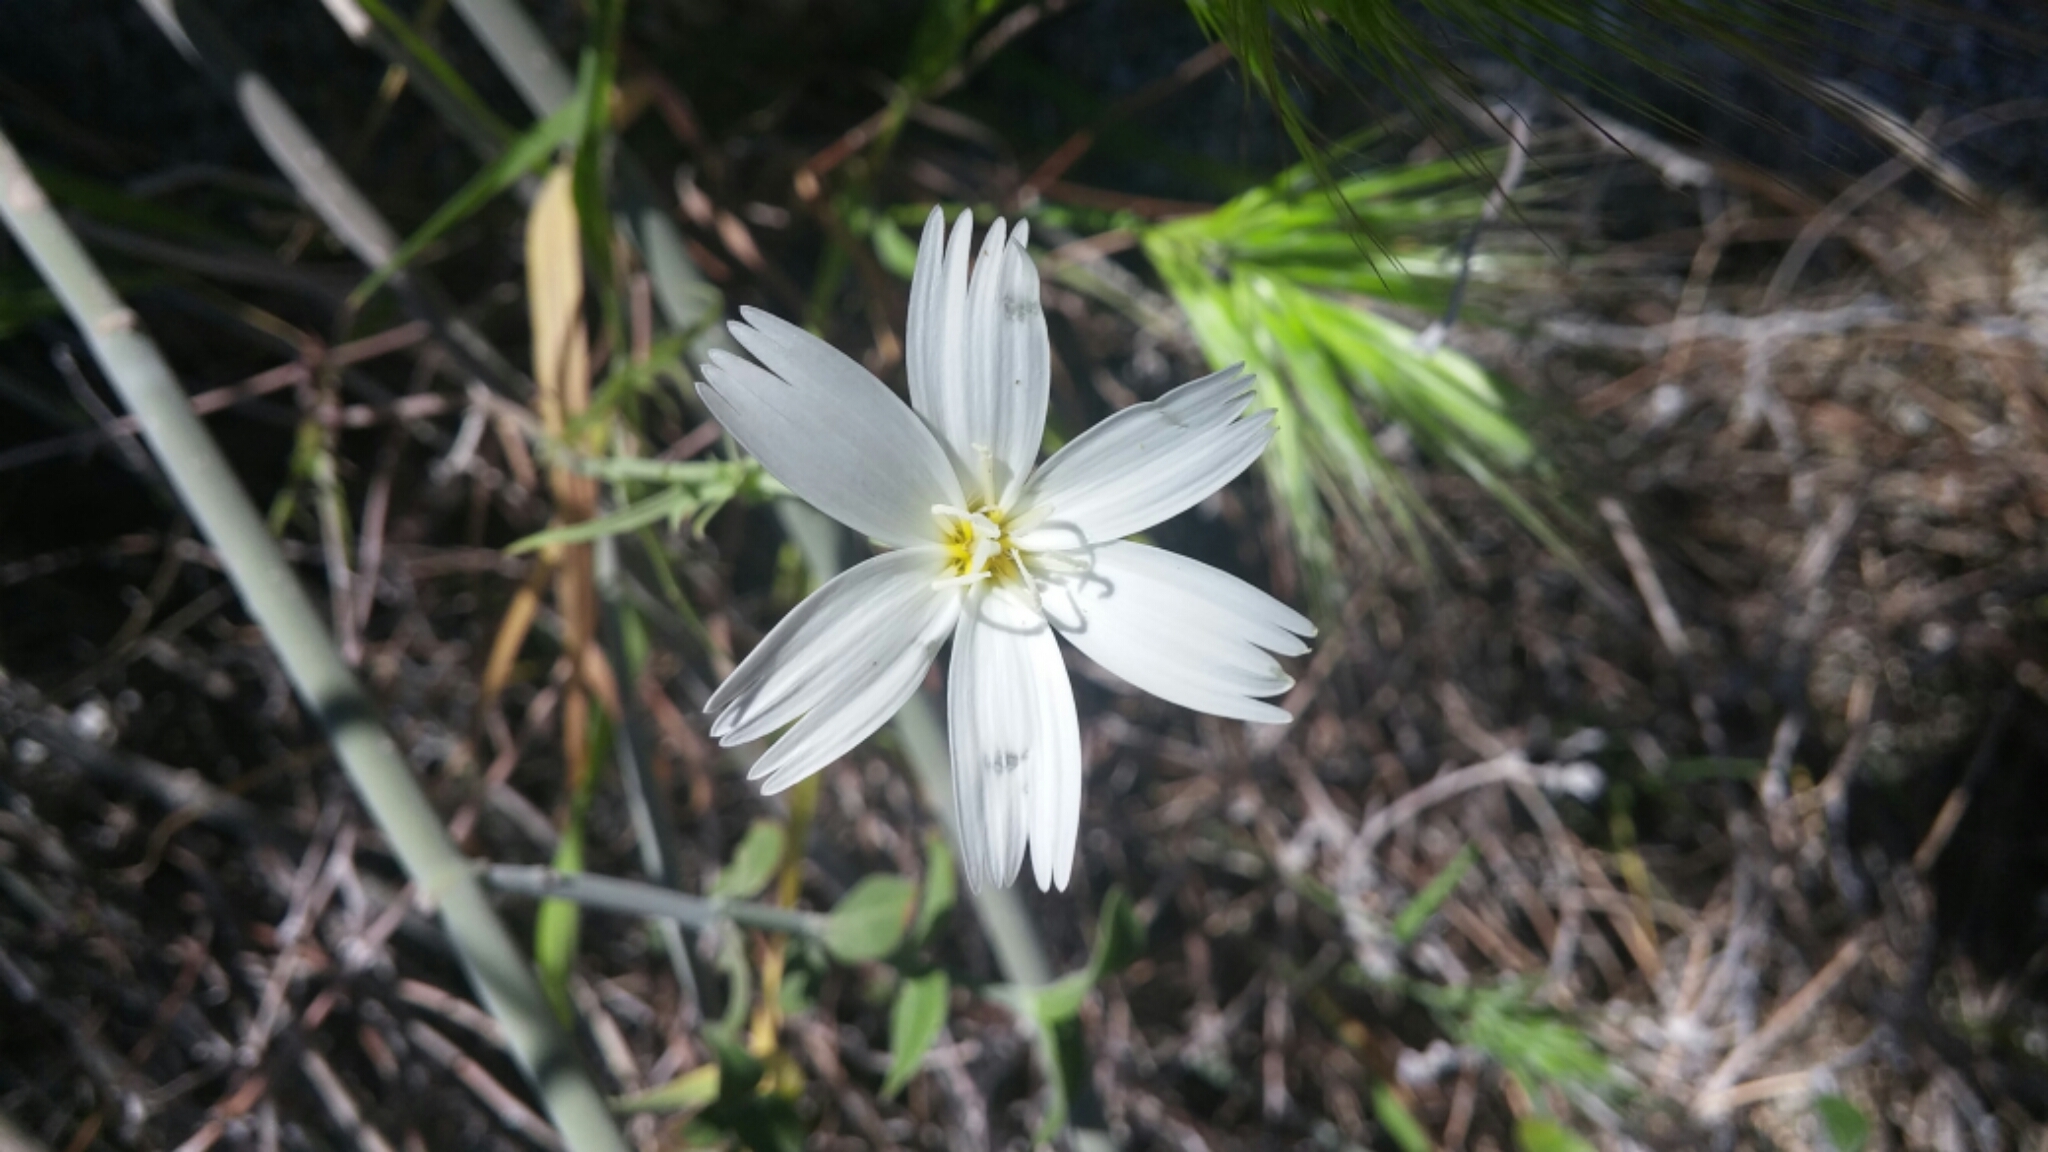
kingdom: Plantae
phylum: Tracheophyta
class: Magnoliopsida
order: Asterales
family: Asteraceae
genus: Rafinesquia
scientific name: Rafinesquia neomexicana
